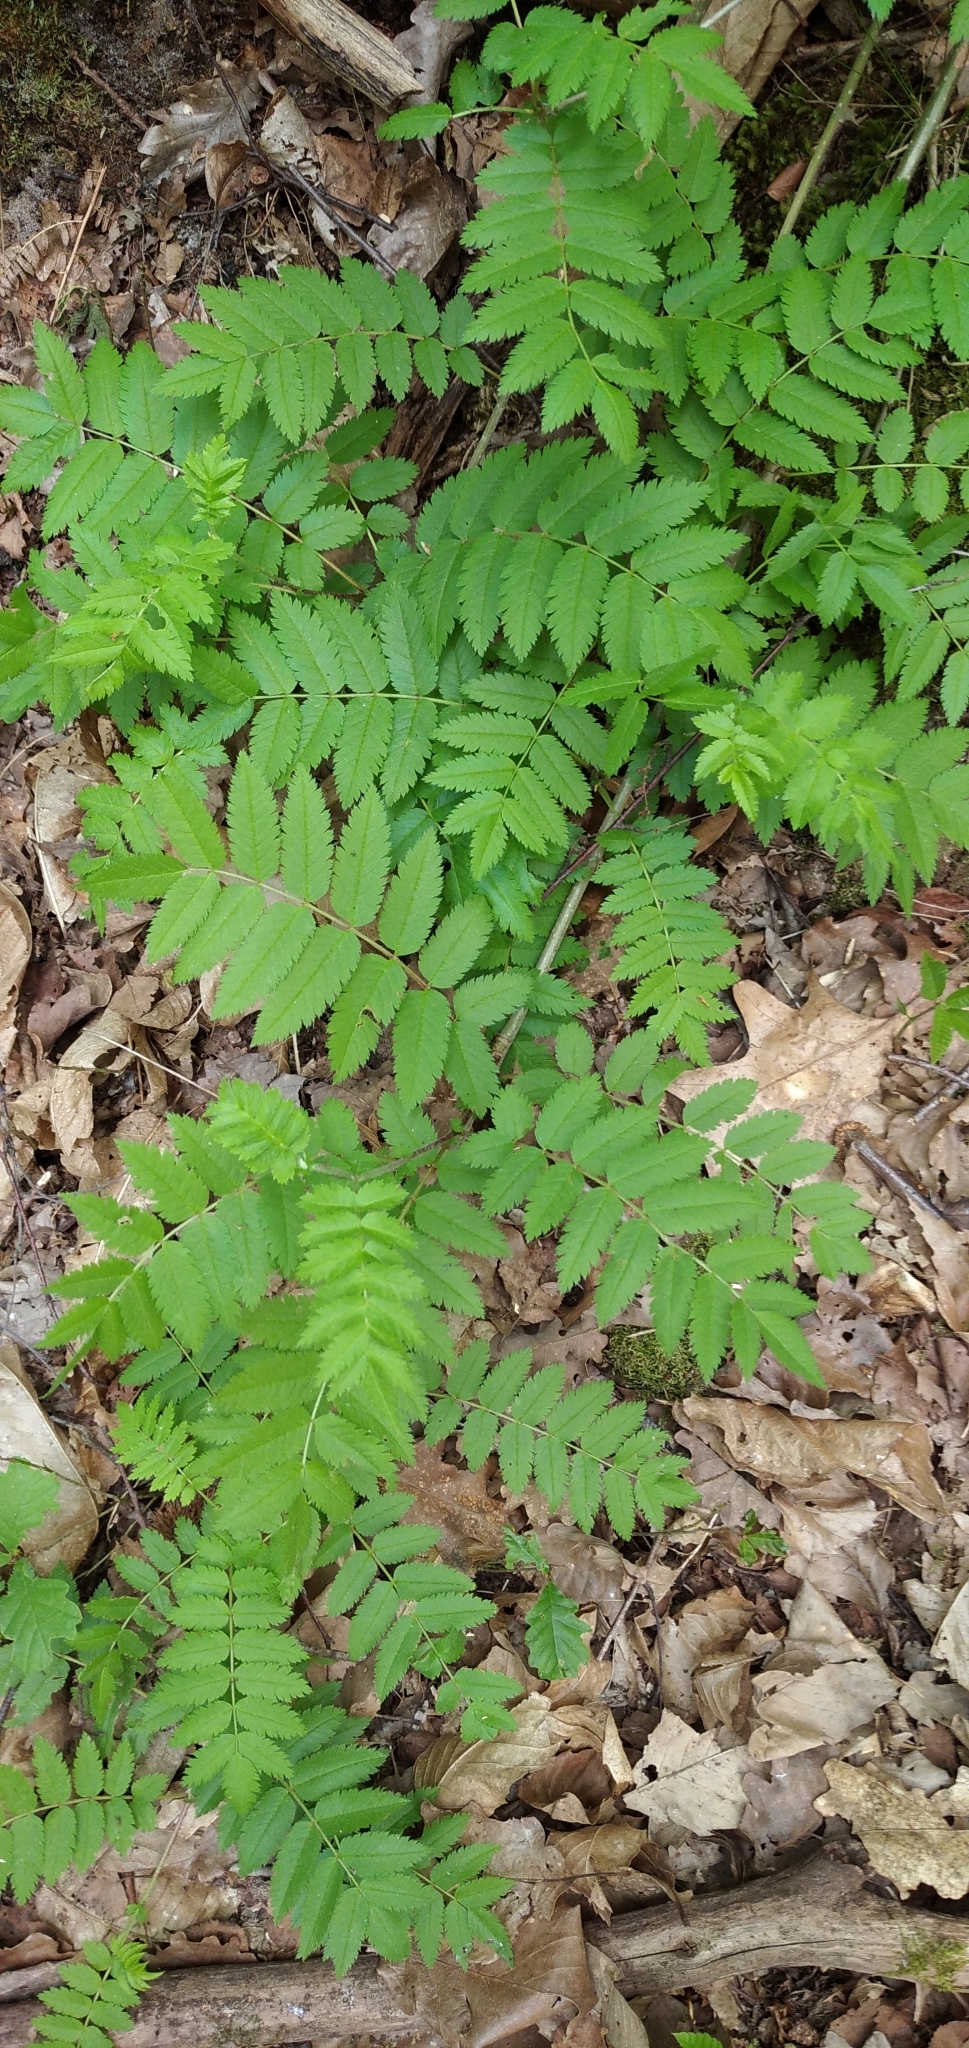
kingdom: Plantae
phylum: Tracheophyta
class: Magnoliopsida
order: Rosales
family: Rosaceae
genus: Sorbus
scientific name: Sorbus aucuparia
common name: Rowan
